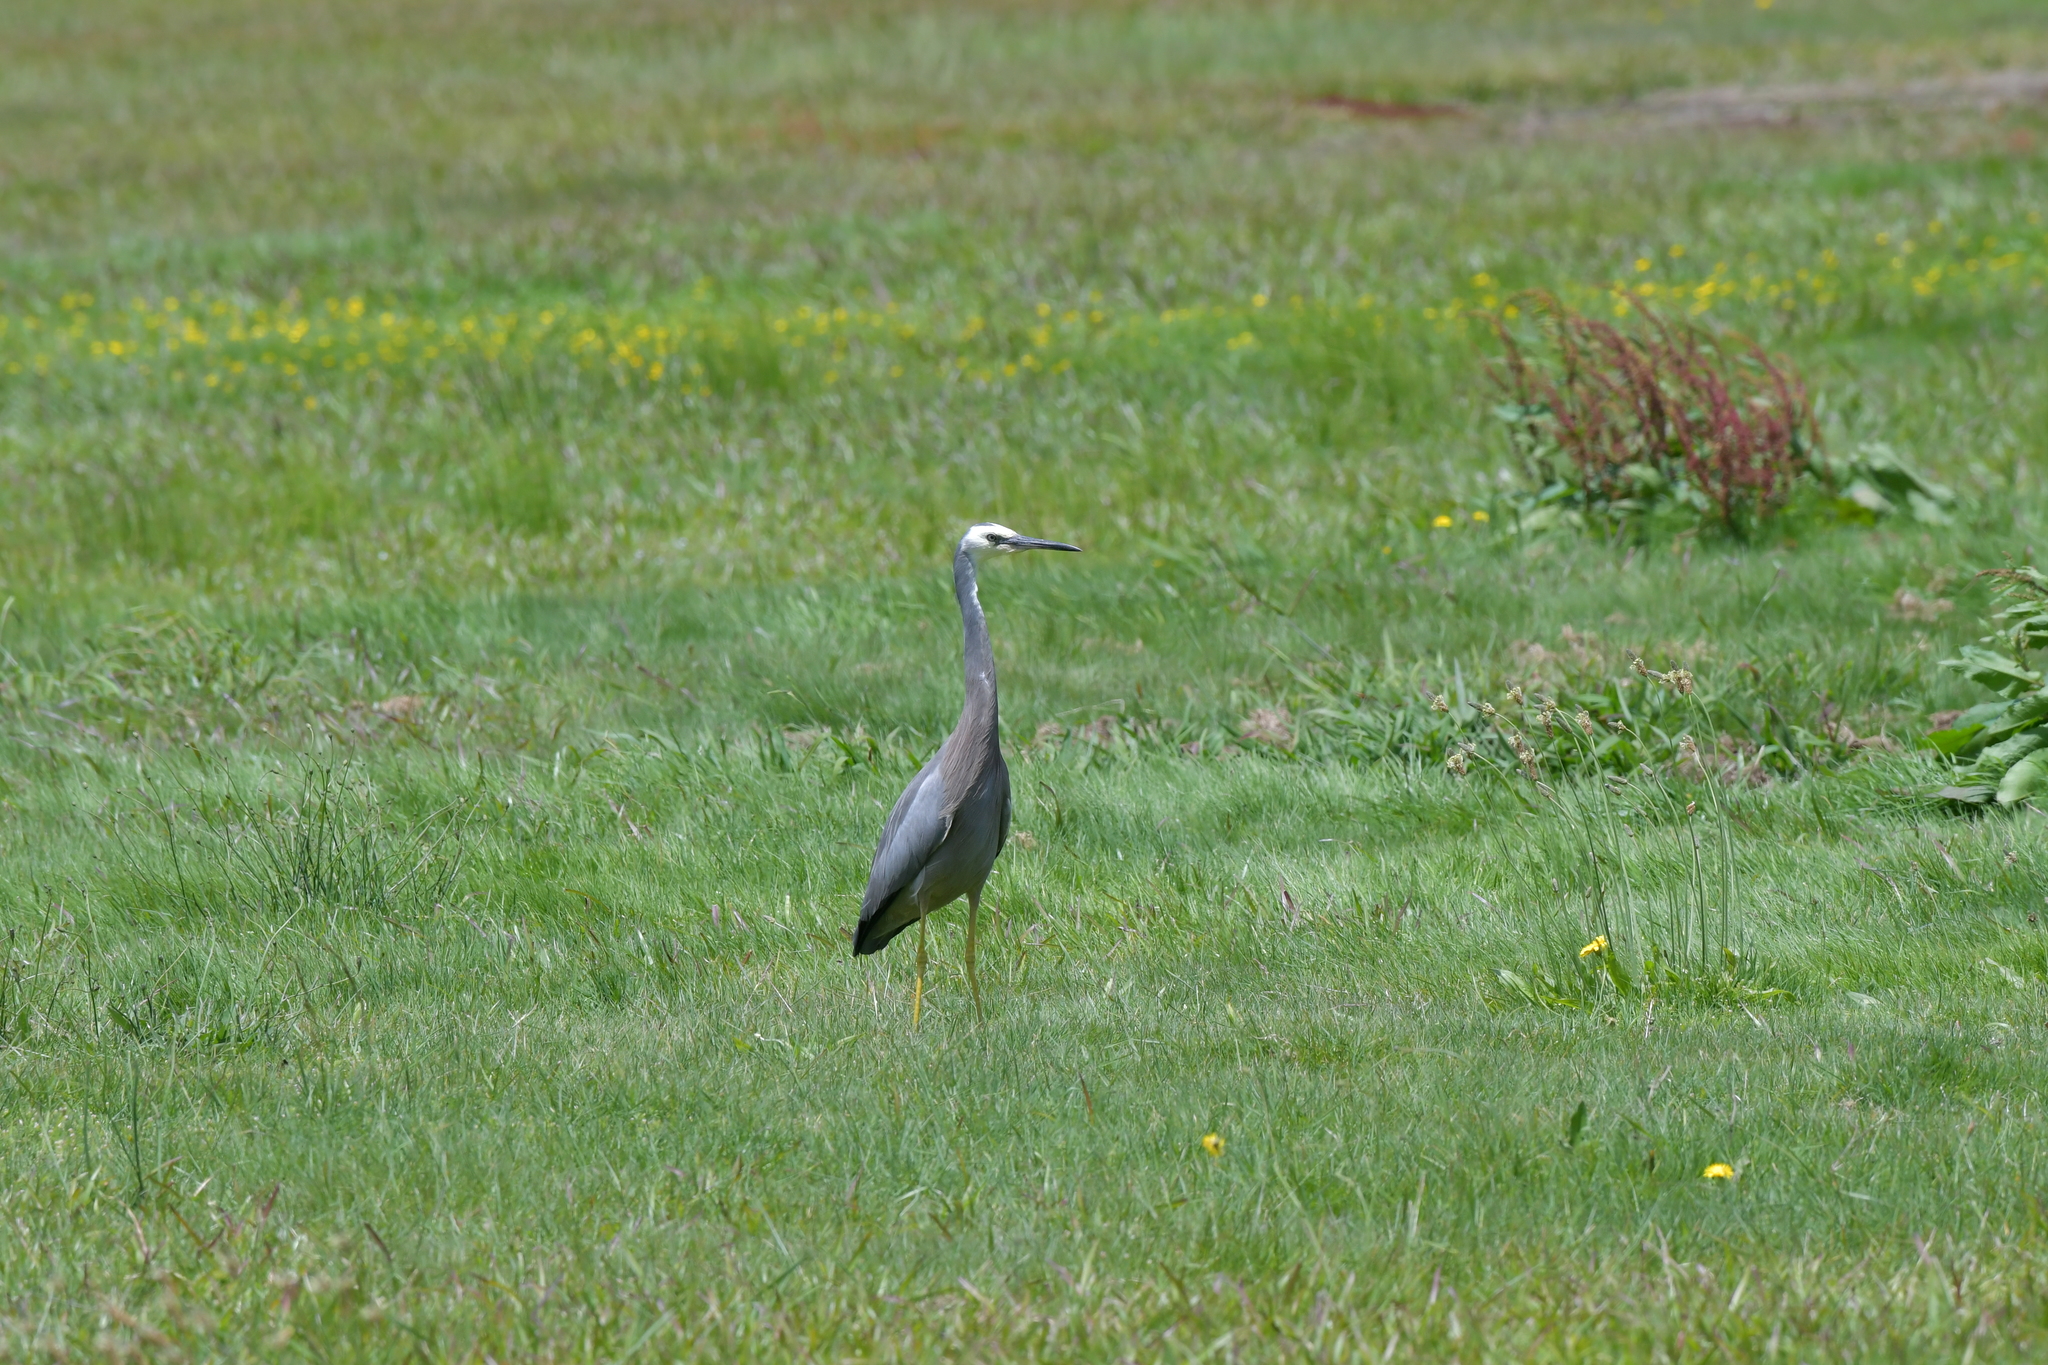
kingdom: Animalia
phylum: Chordata
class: Aves
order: Pelecaniformes
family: Ardeidae
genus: Egretta
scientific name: Egretta novaehollandiae
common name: White-faced heron
